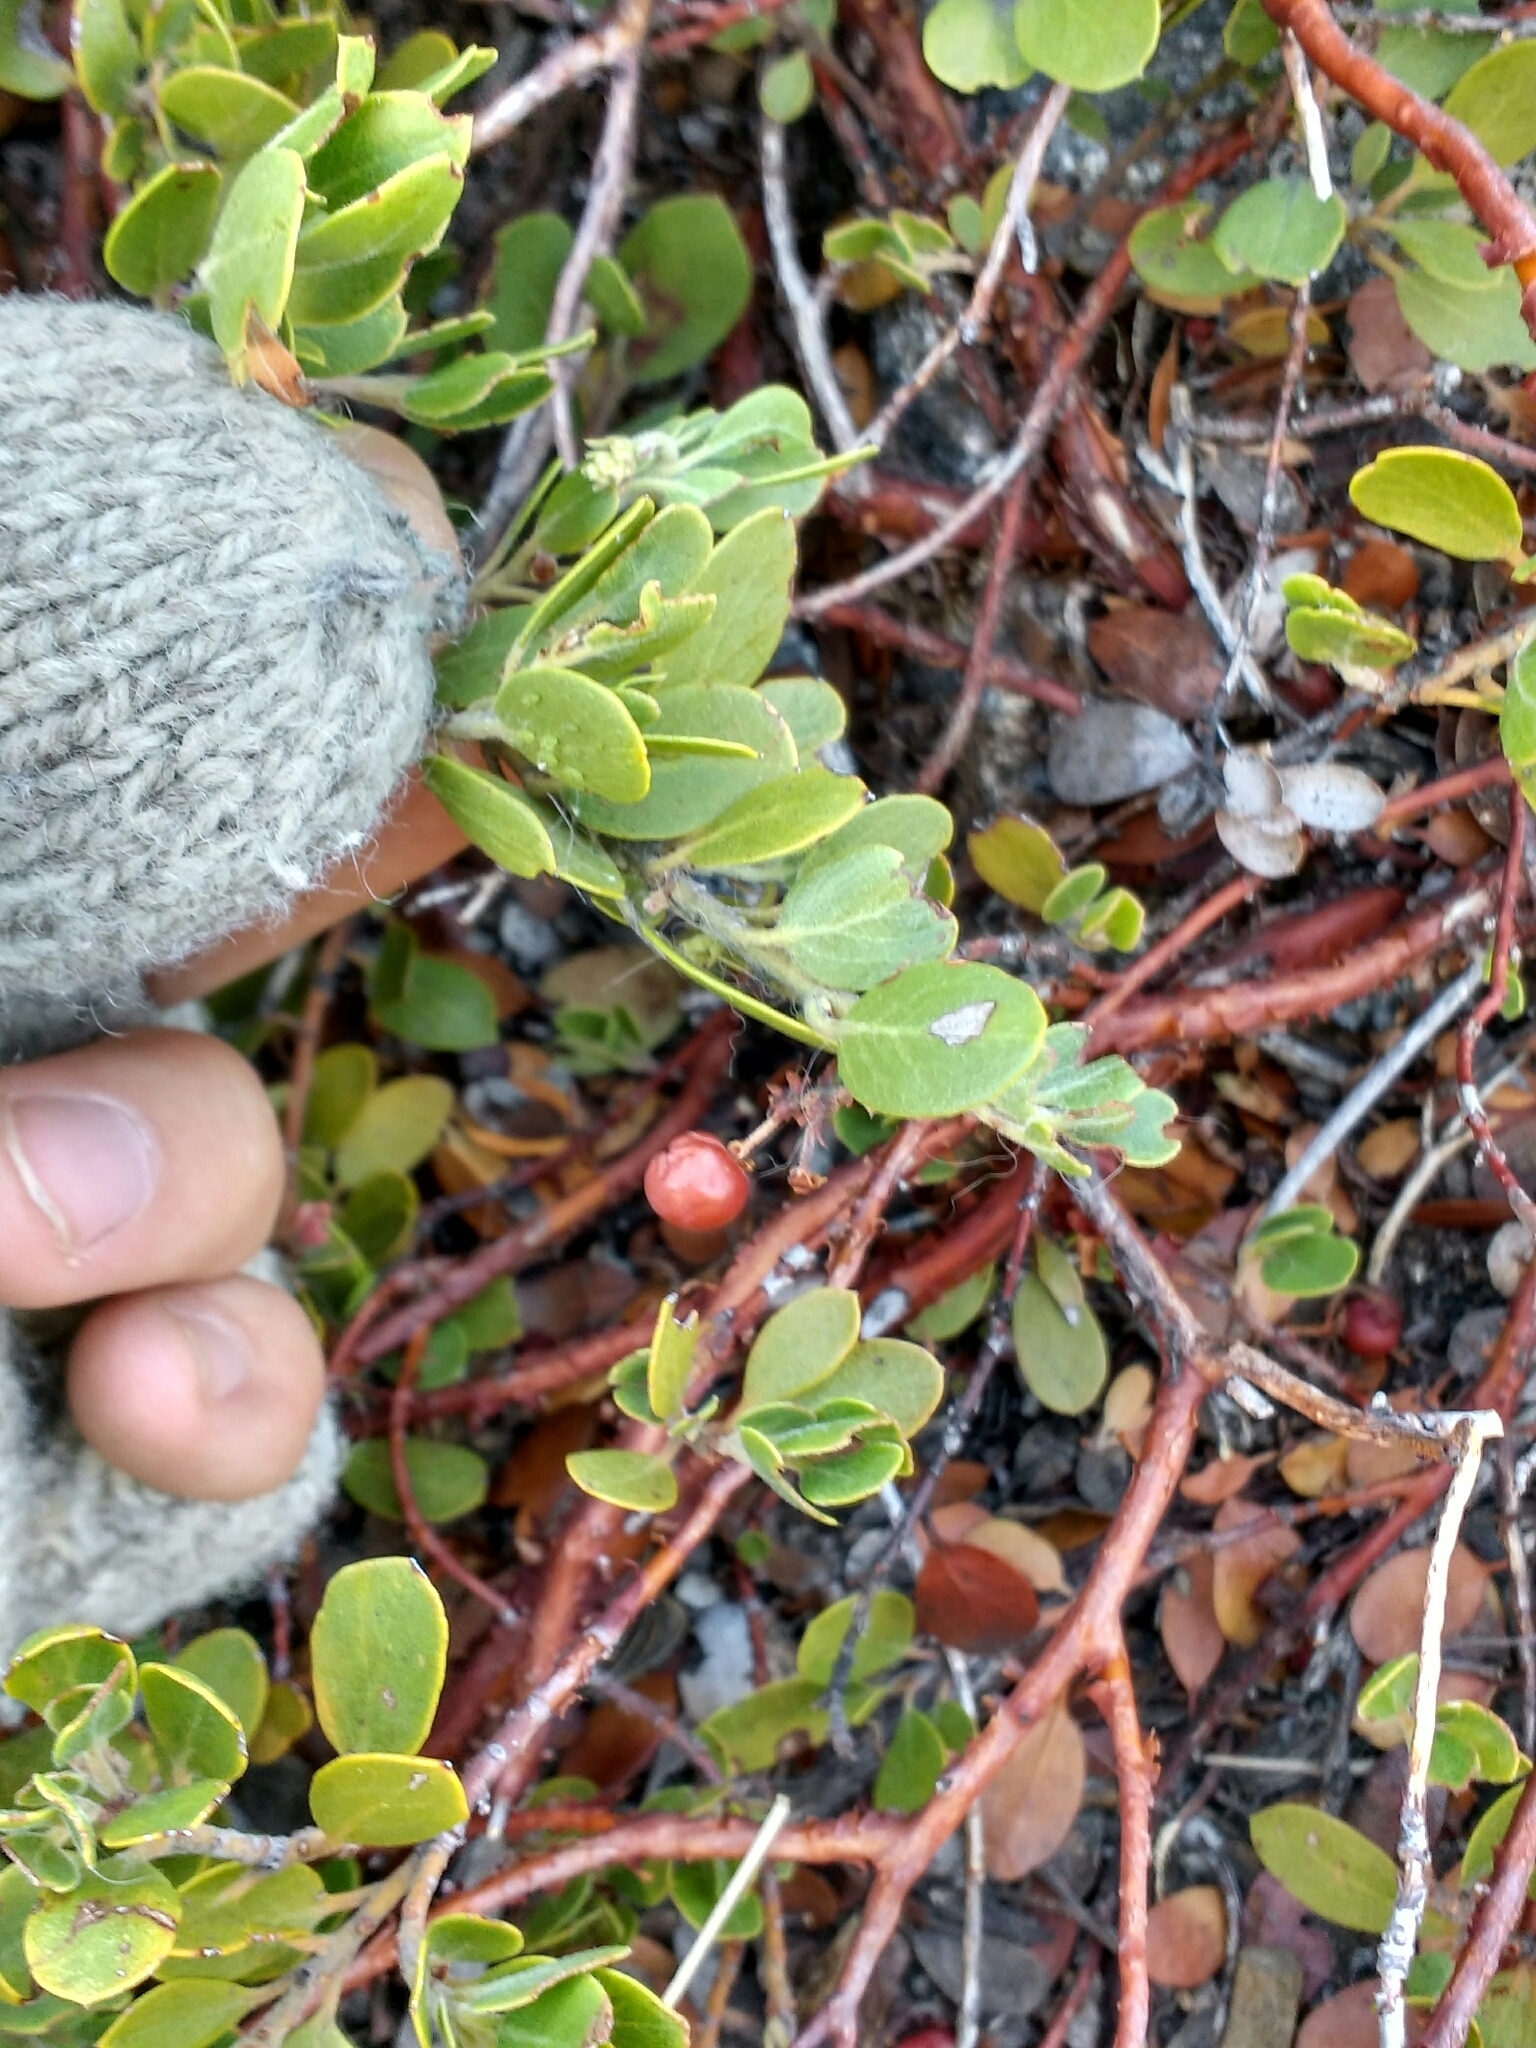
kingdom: Plantae
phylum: Tracheophyta
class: Magnoliopsida
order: Ericales
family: Ericaceae
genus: Arctostaphylos
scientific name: Arctostaphylos nevadensis
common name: Pinemat manzanita
